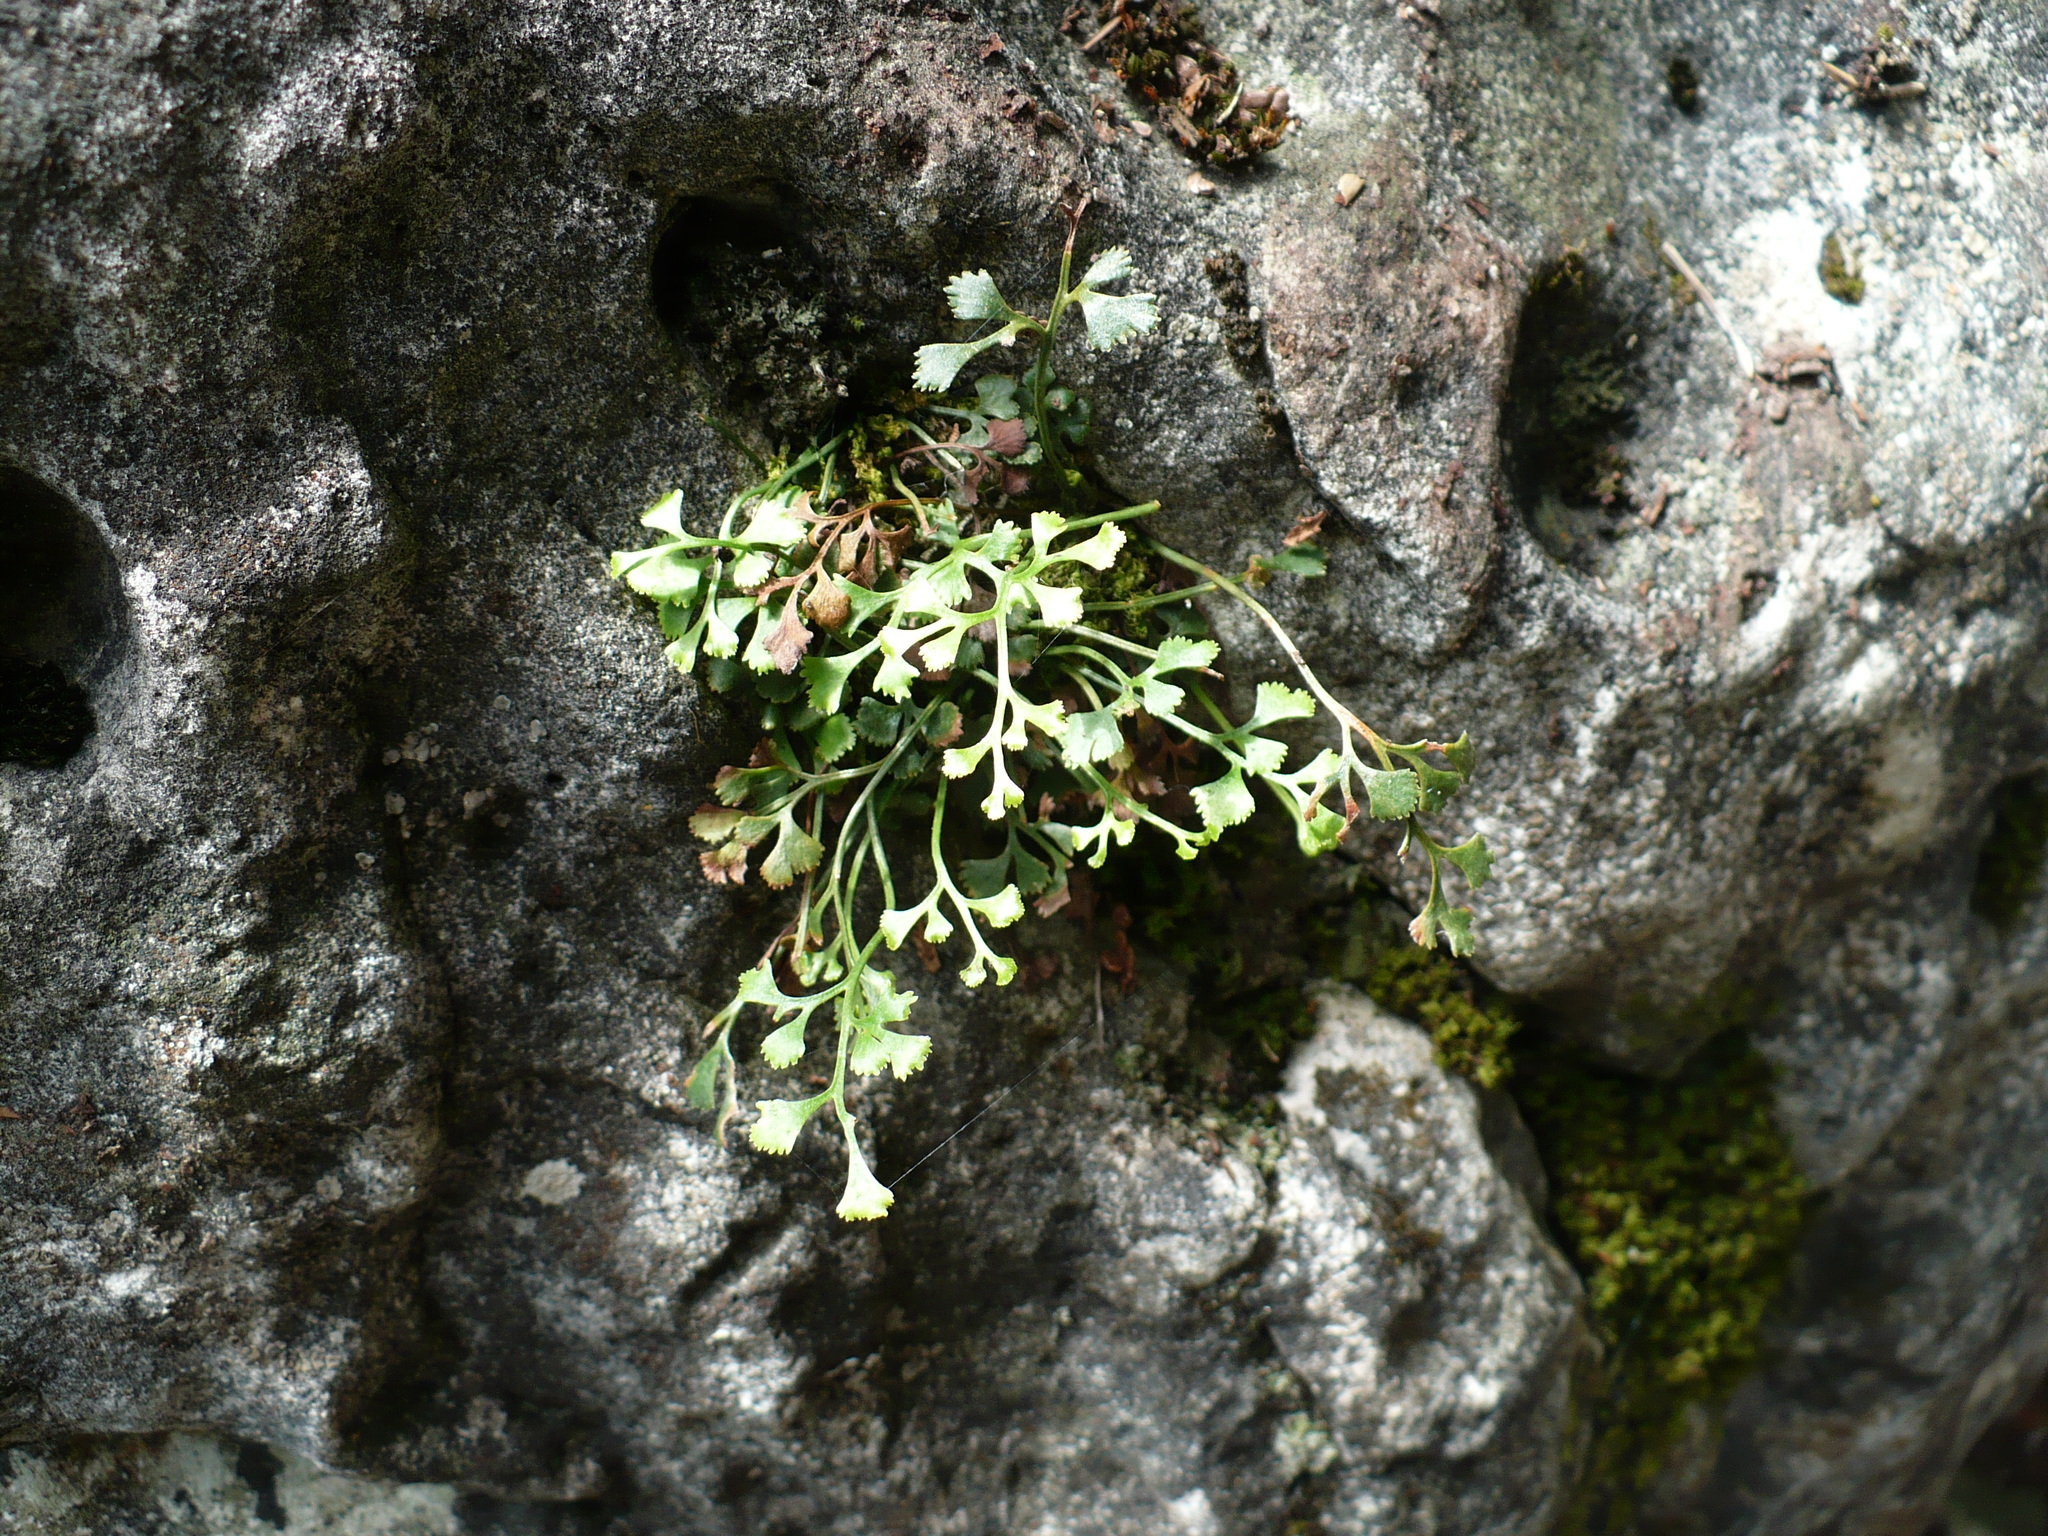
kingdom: Plantae
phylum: Tracheophyta
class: Polypodiopsida
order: Polypodiales
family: Aspleniaceae
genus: Asplenium
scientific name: Asplenium ruta-muraria
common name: Wall-rue
